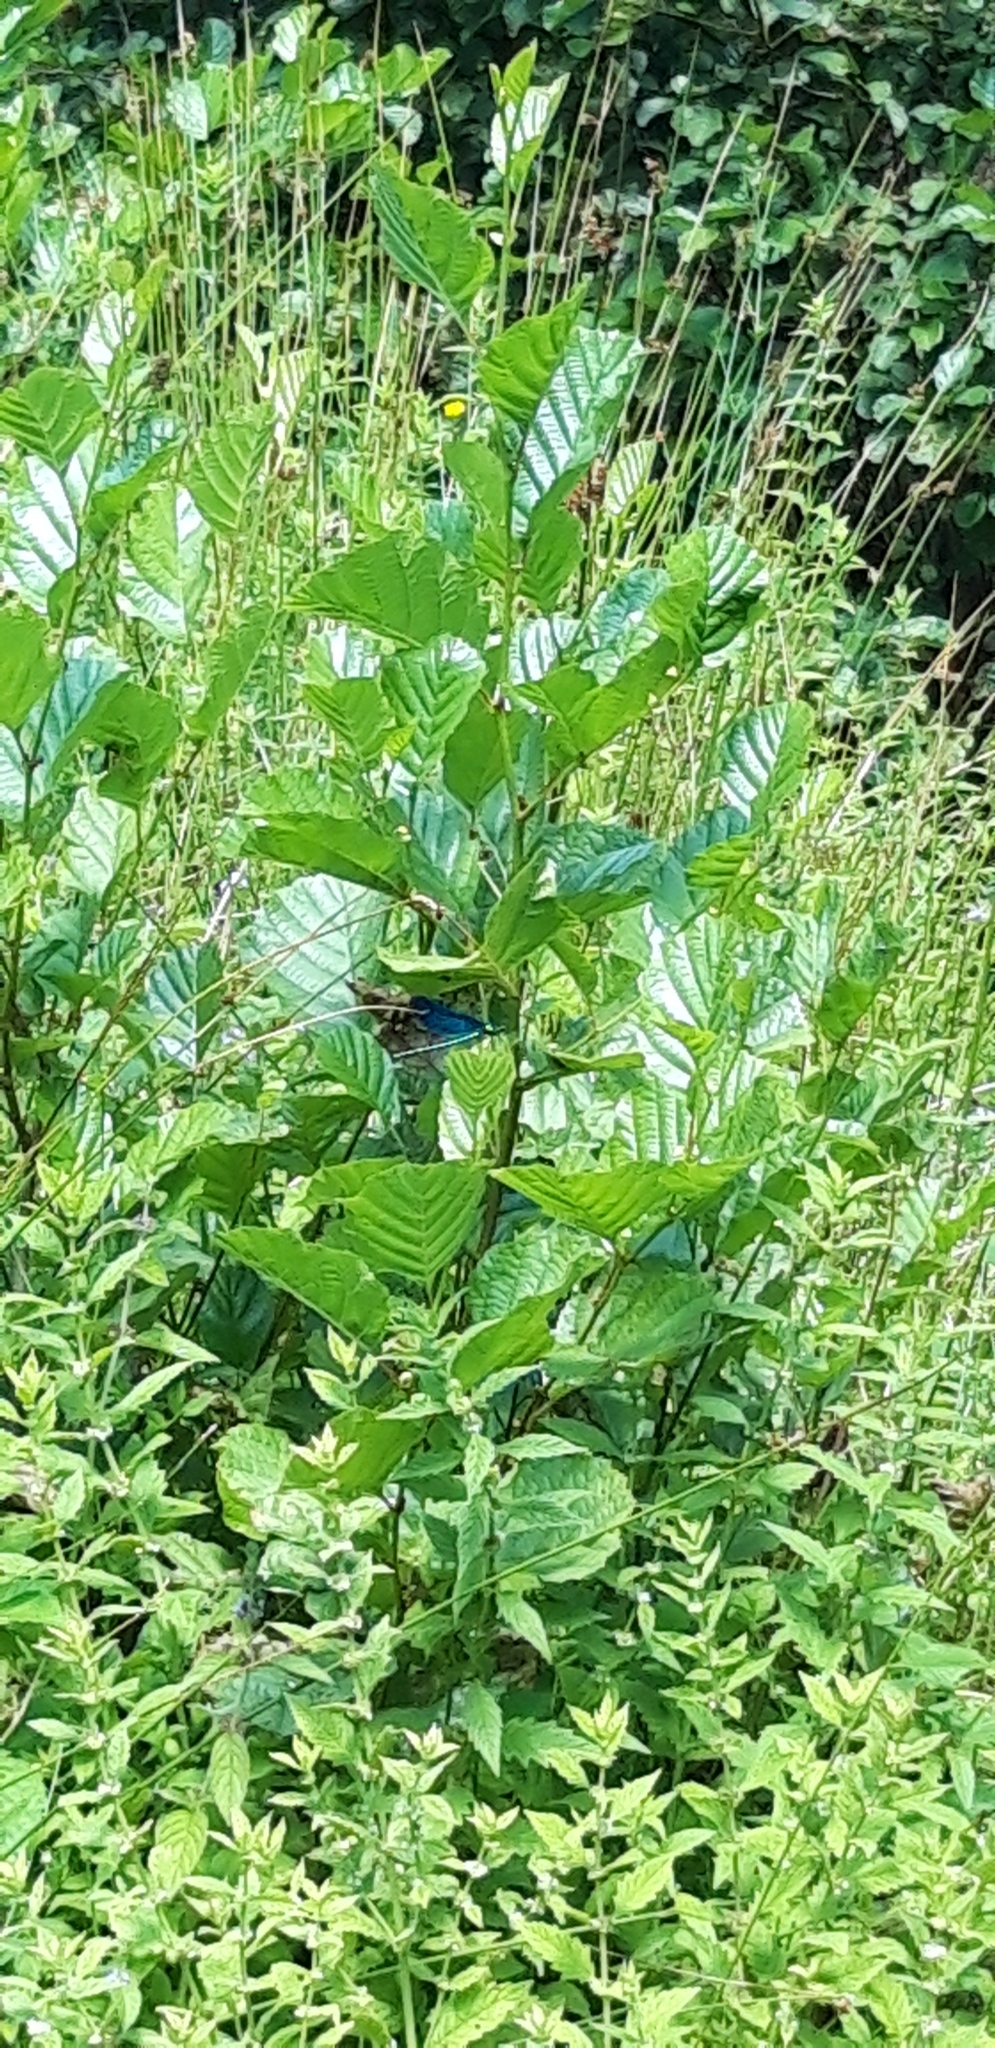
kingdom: Animalia
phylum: Arthropoda
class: Insecta
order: Odonata
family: Calopterygidae
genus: Calopteryx
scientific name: Calopteryx virgo
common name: Beautiful demoiselle
